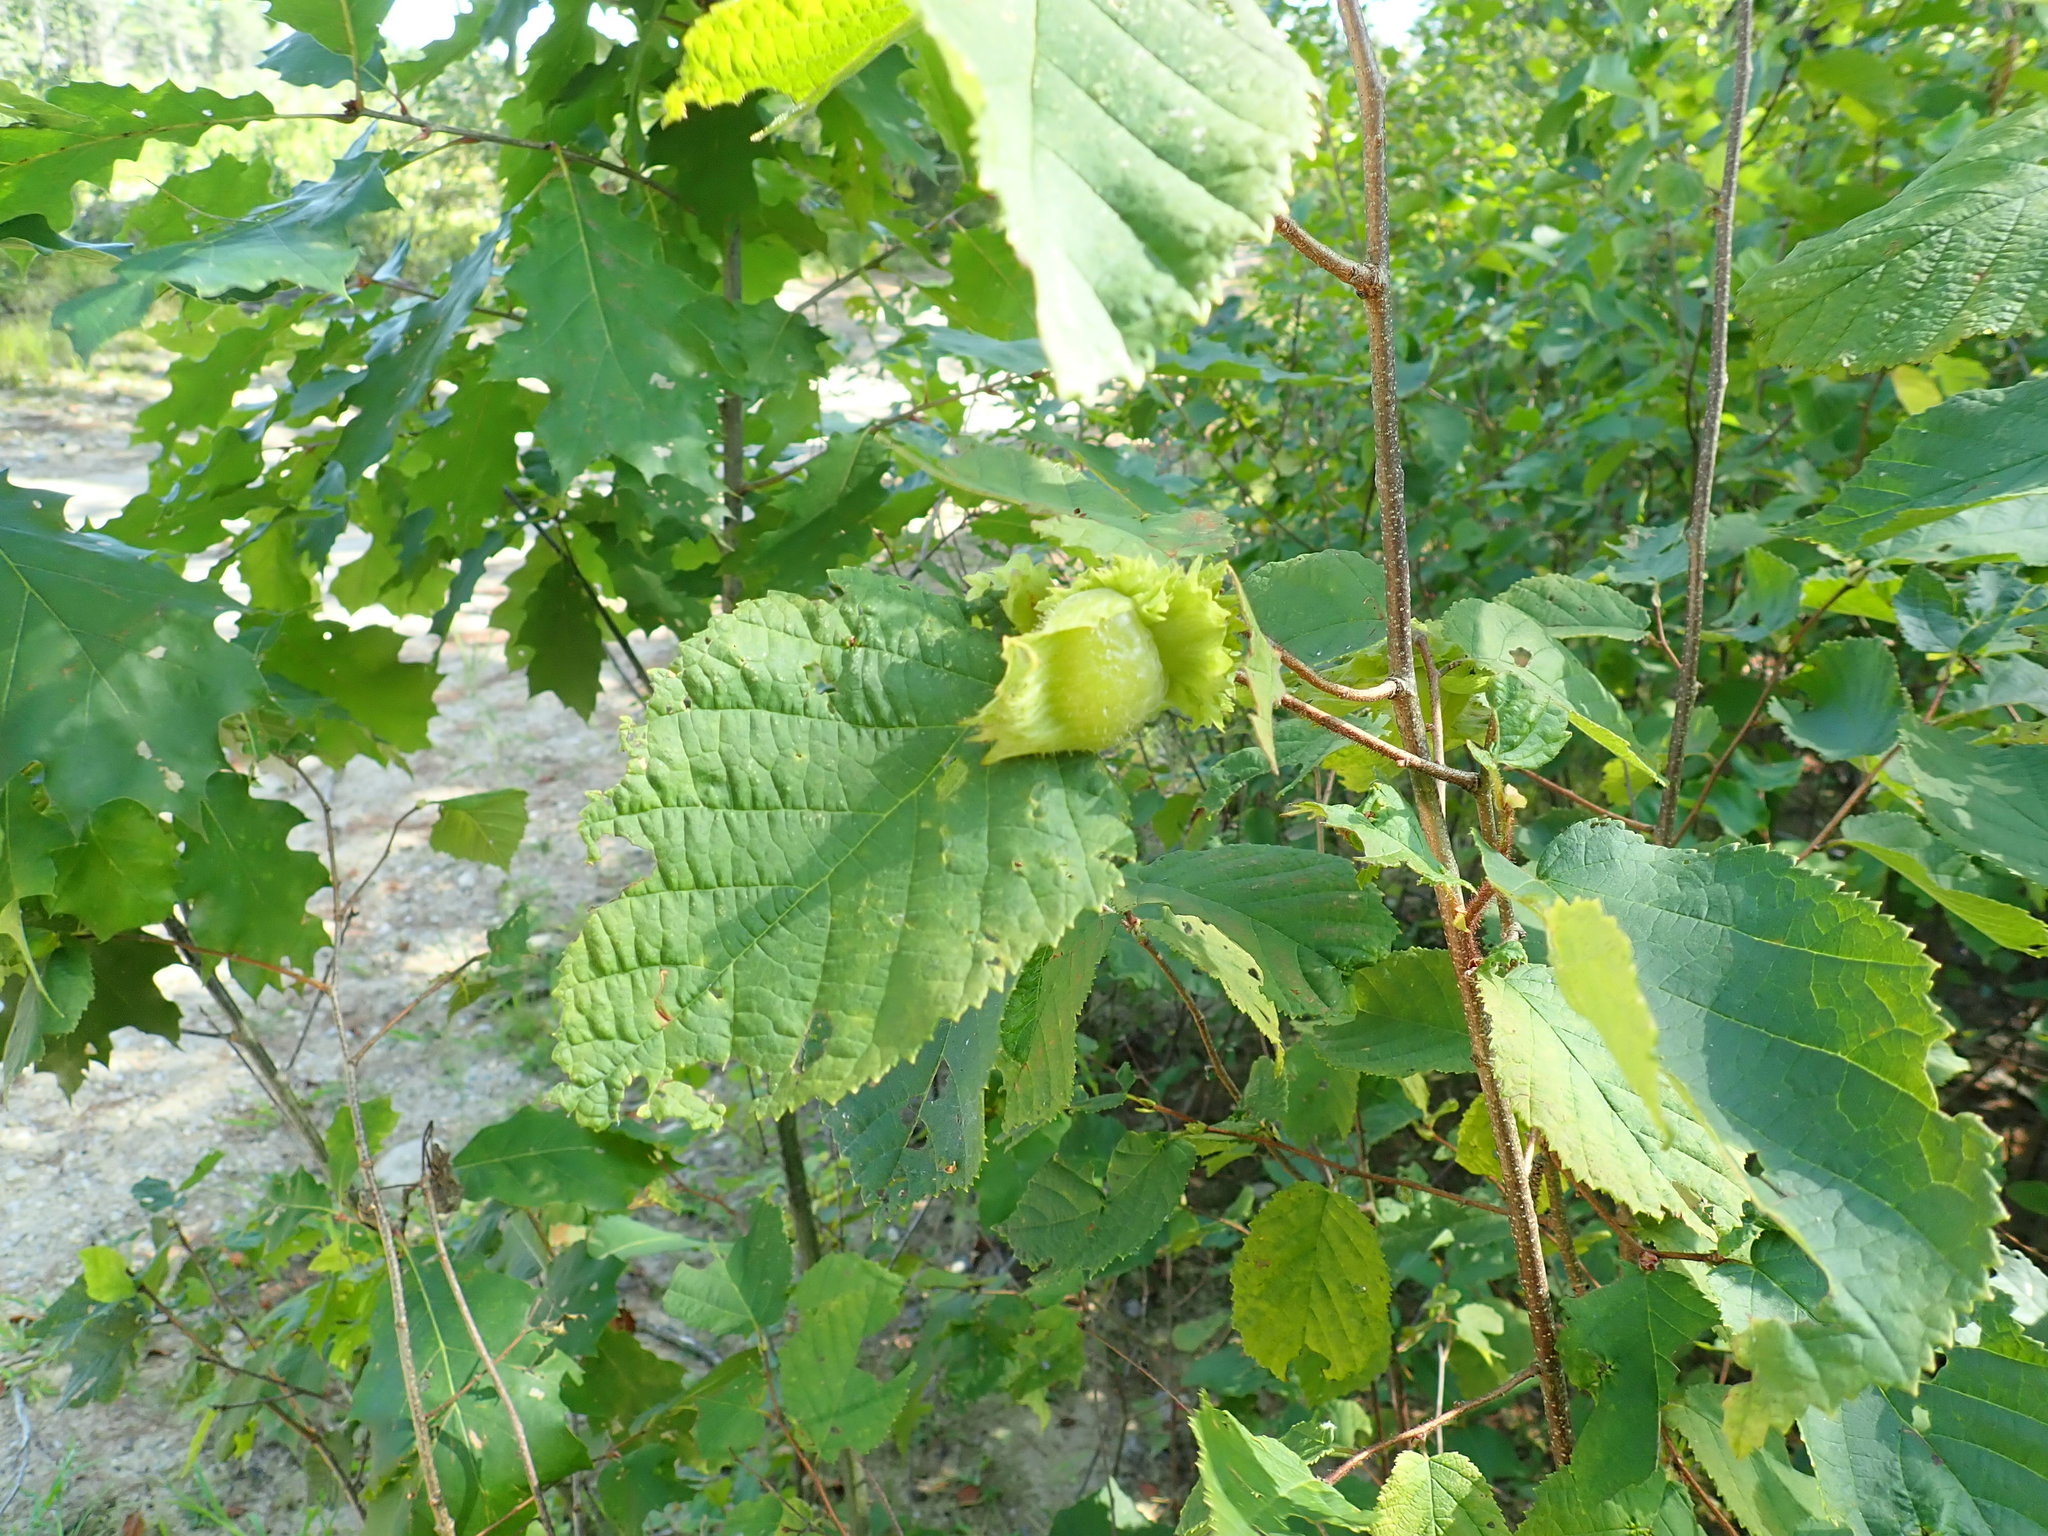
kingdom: Plantae
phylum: Tracheophyta
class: Magnoliopsida
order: Fagales
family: Betulaceae
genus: Corylus
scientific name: Corylus americana
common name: American hazel
